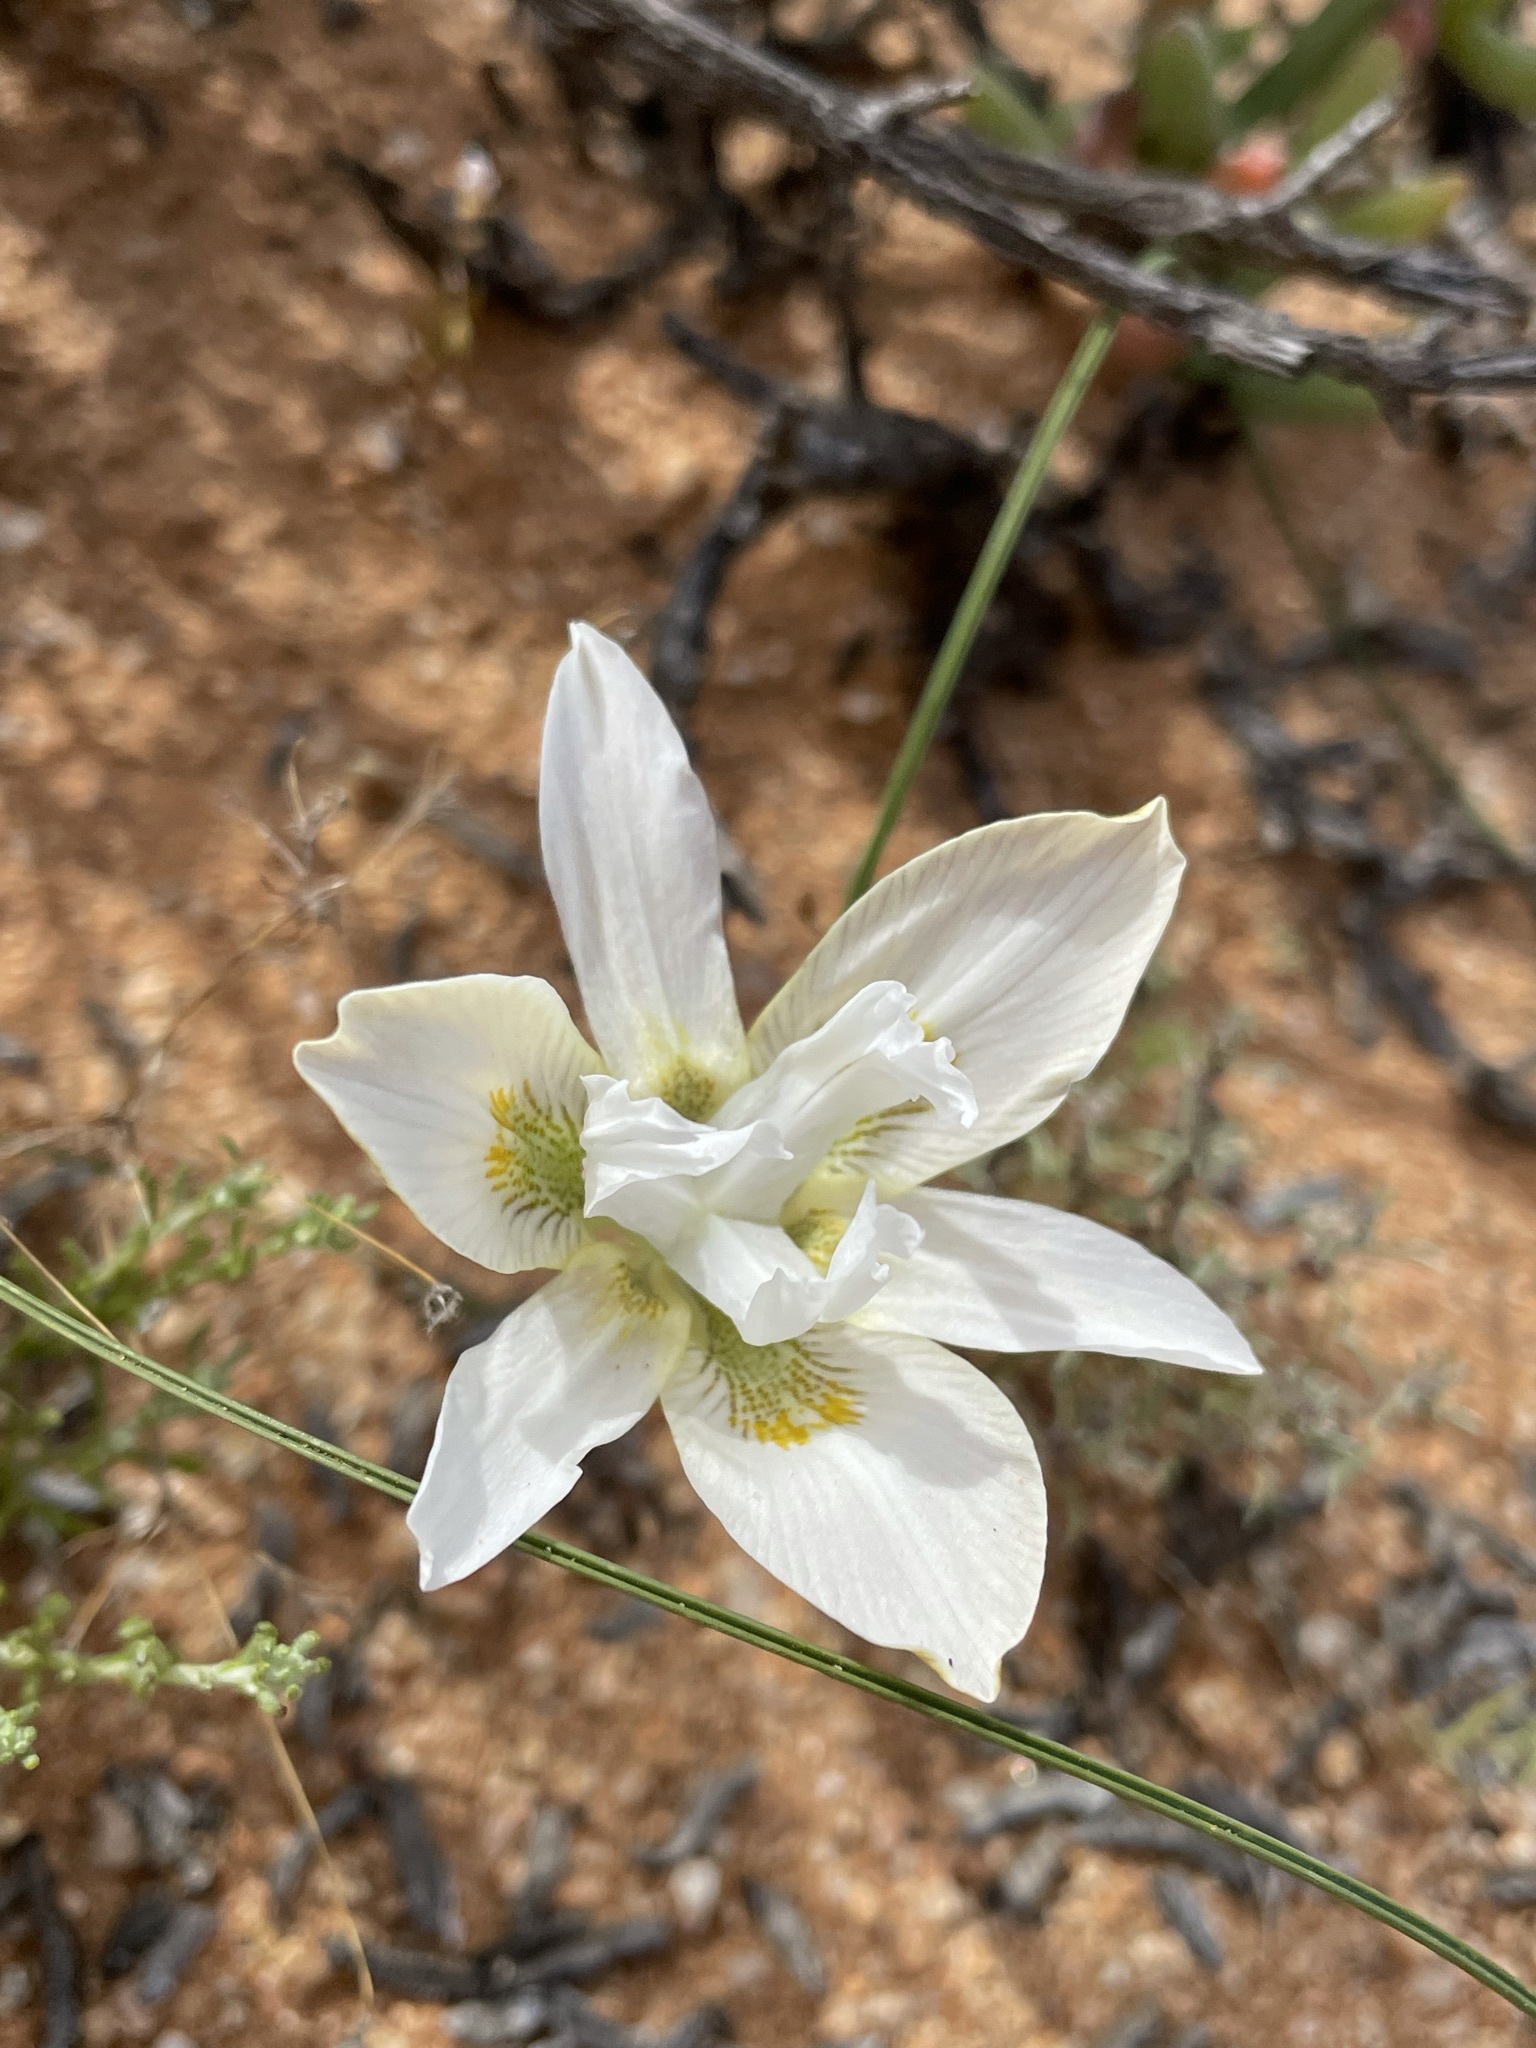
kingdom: Plantae
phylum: Tracheophyta
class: Liliopsida
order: Asparagales
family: Iridaceae
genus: Moraea
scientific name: Moraea filicaulis
